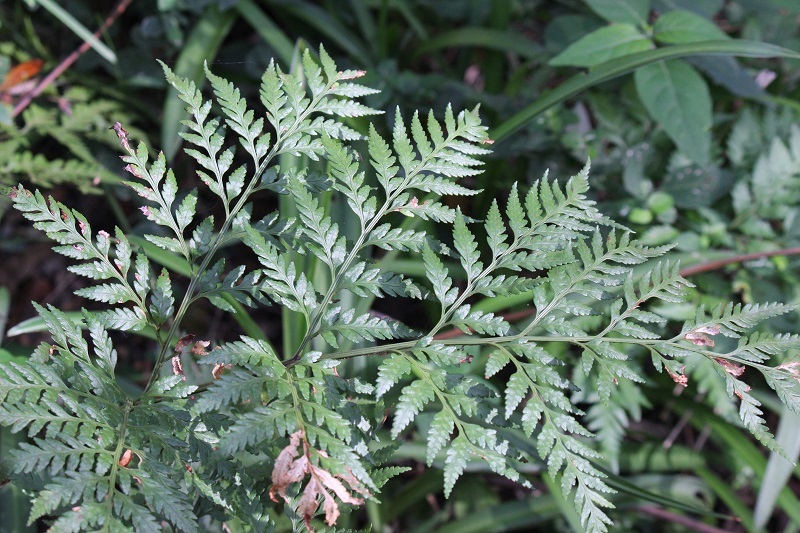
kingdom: Plantae
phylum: Tracheophyta
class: Polypodiopsida
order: Polypodiales
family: Dryopteridaceae
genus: Rumohra
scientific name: Rumohra adiantiformis
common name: Leather fern
